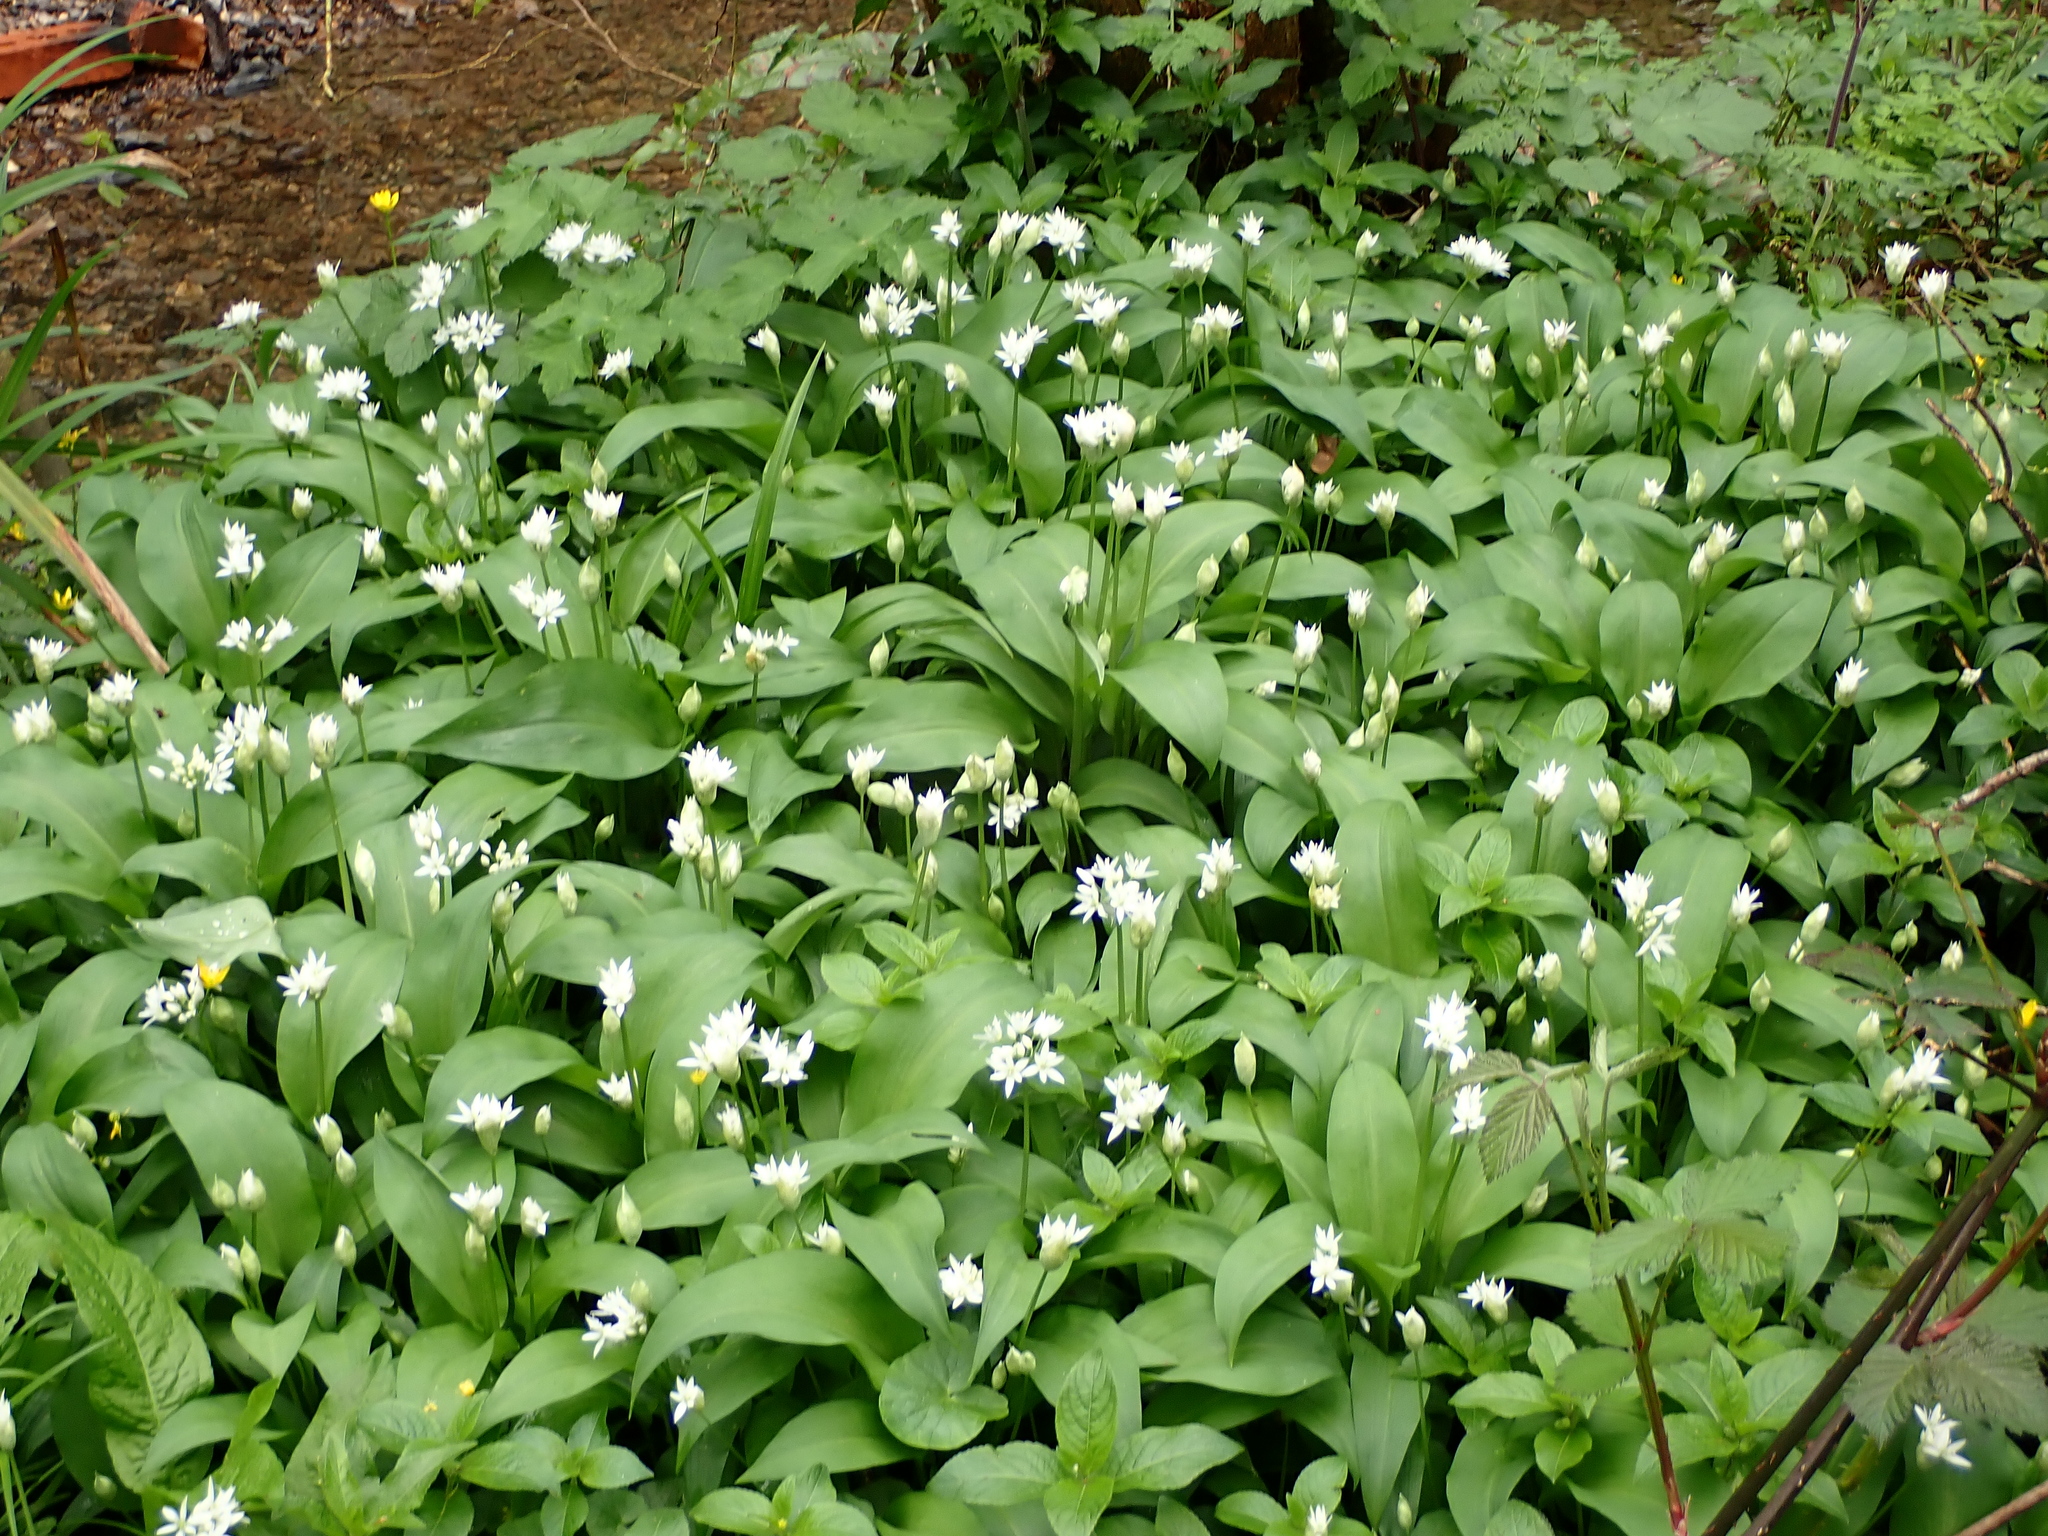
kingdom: Plantae
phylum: Tracheophyta
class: Liliopsida
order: Asparagales
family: Amaryllidaceae
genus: Allium
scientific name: Allium ursinum
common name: Ramsons
